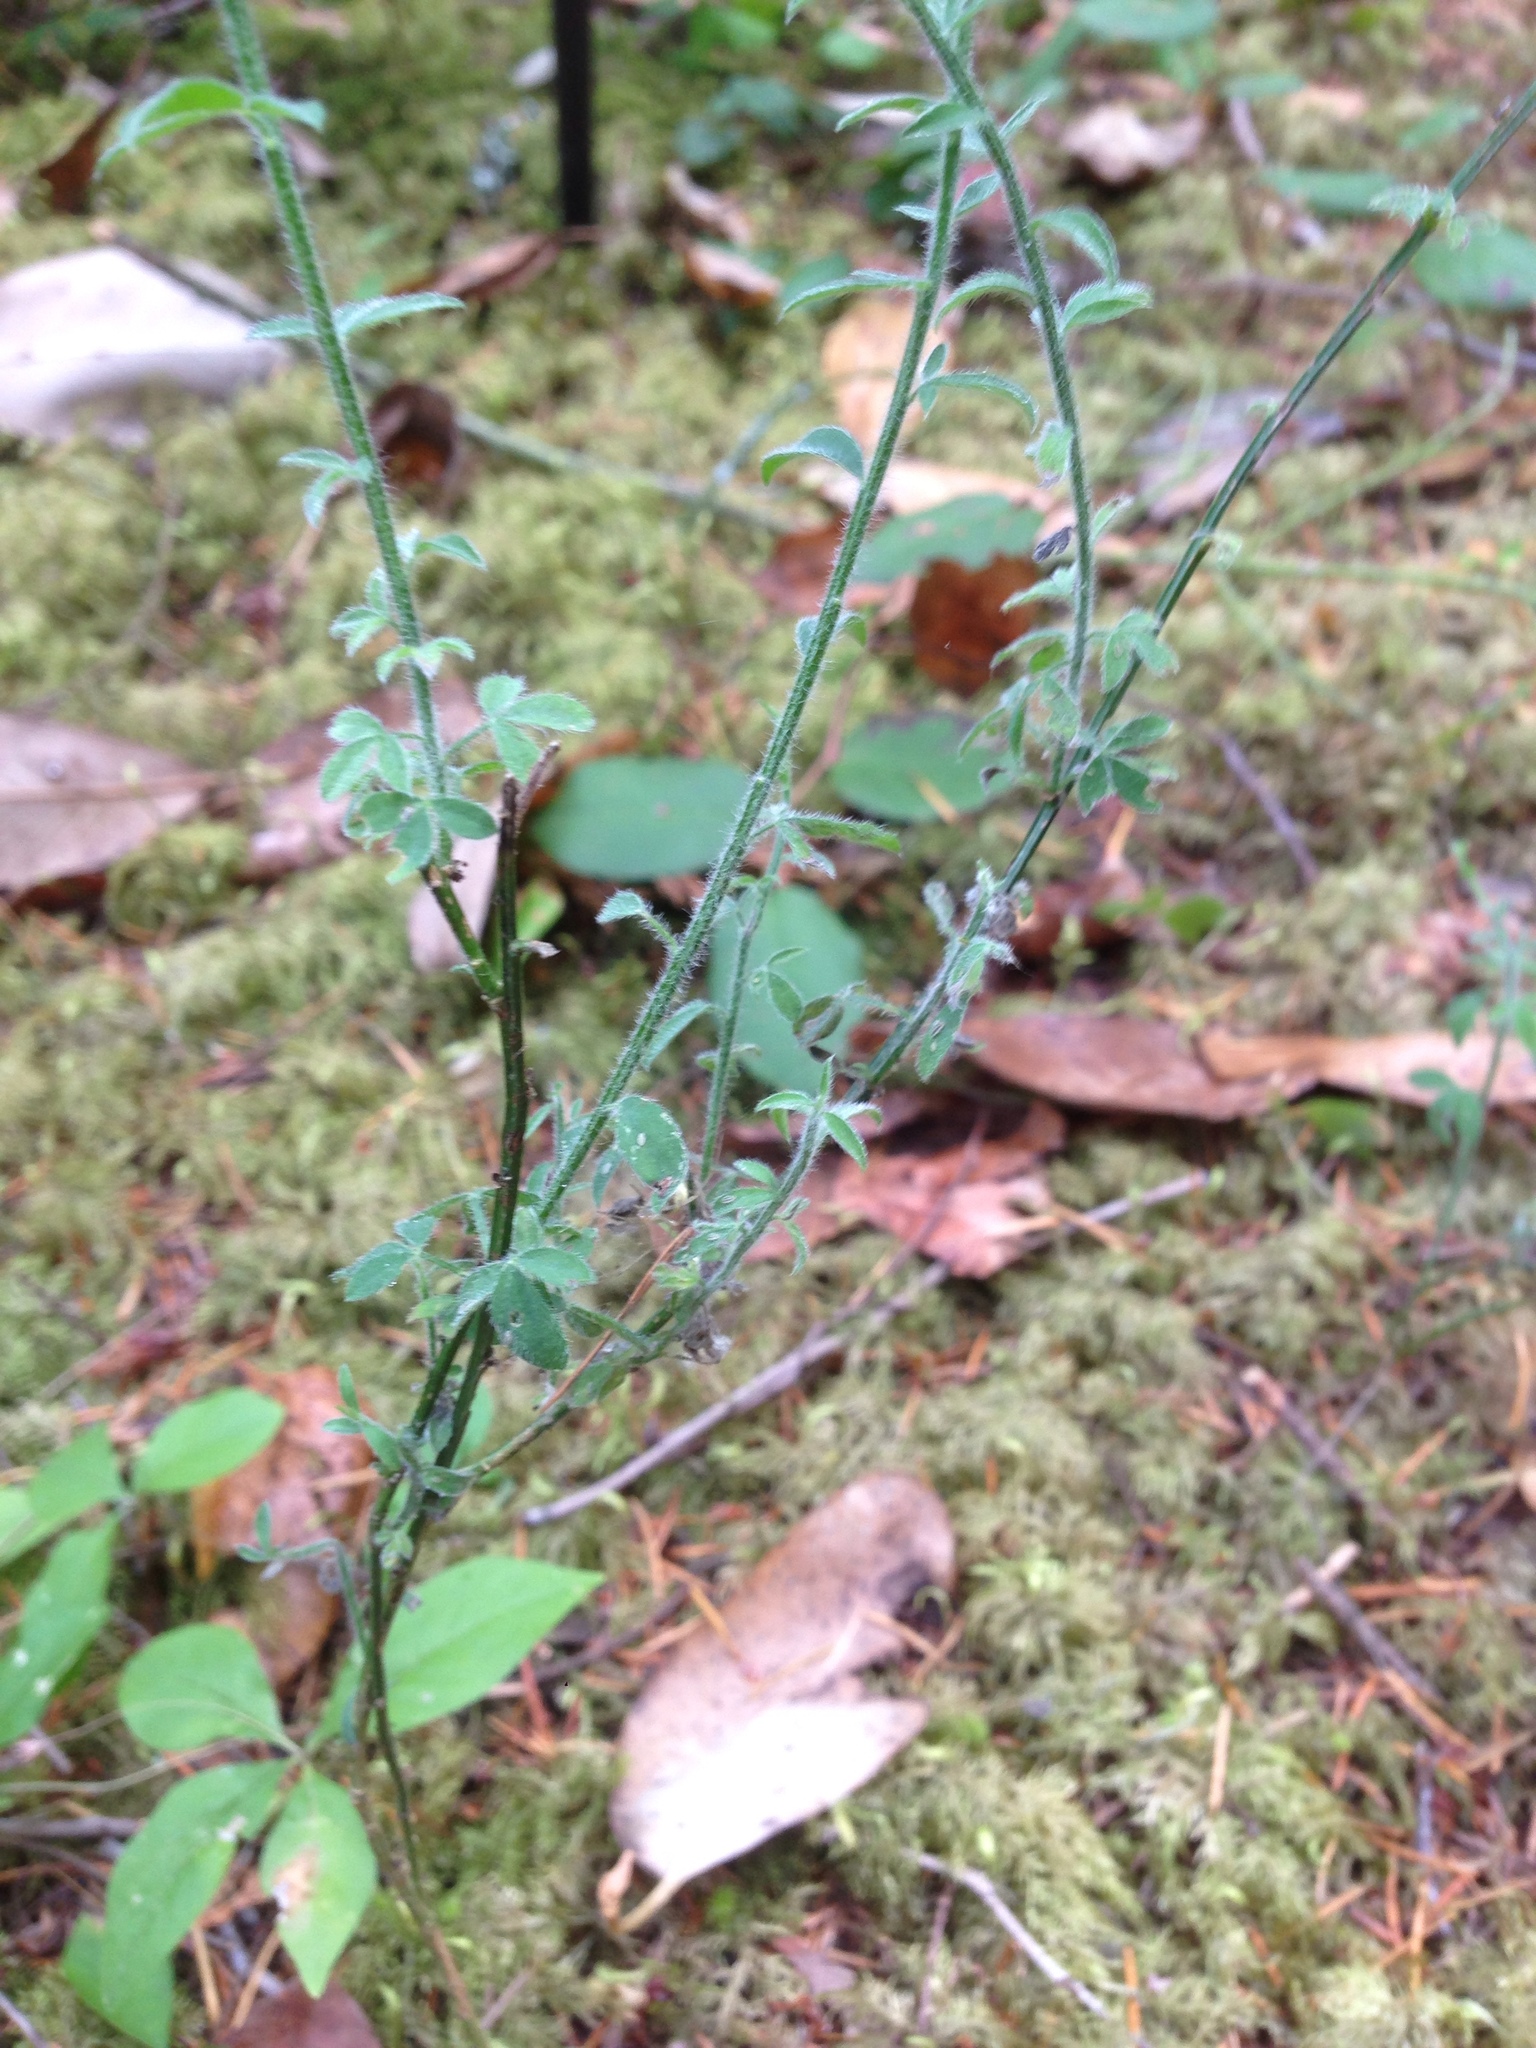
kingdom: Plantae
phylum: Tracheophyta
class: Magnoliopsida
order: Fabales
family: Fabaceae
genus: Cytisus
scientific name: Cytisus scoparius
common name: Scotch broom
